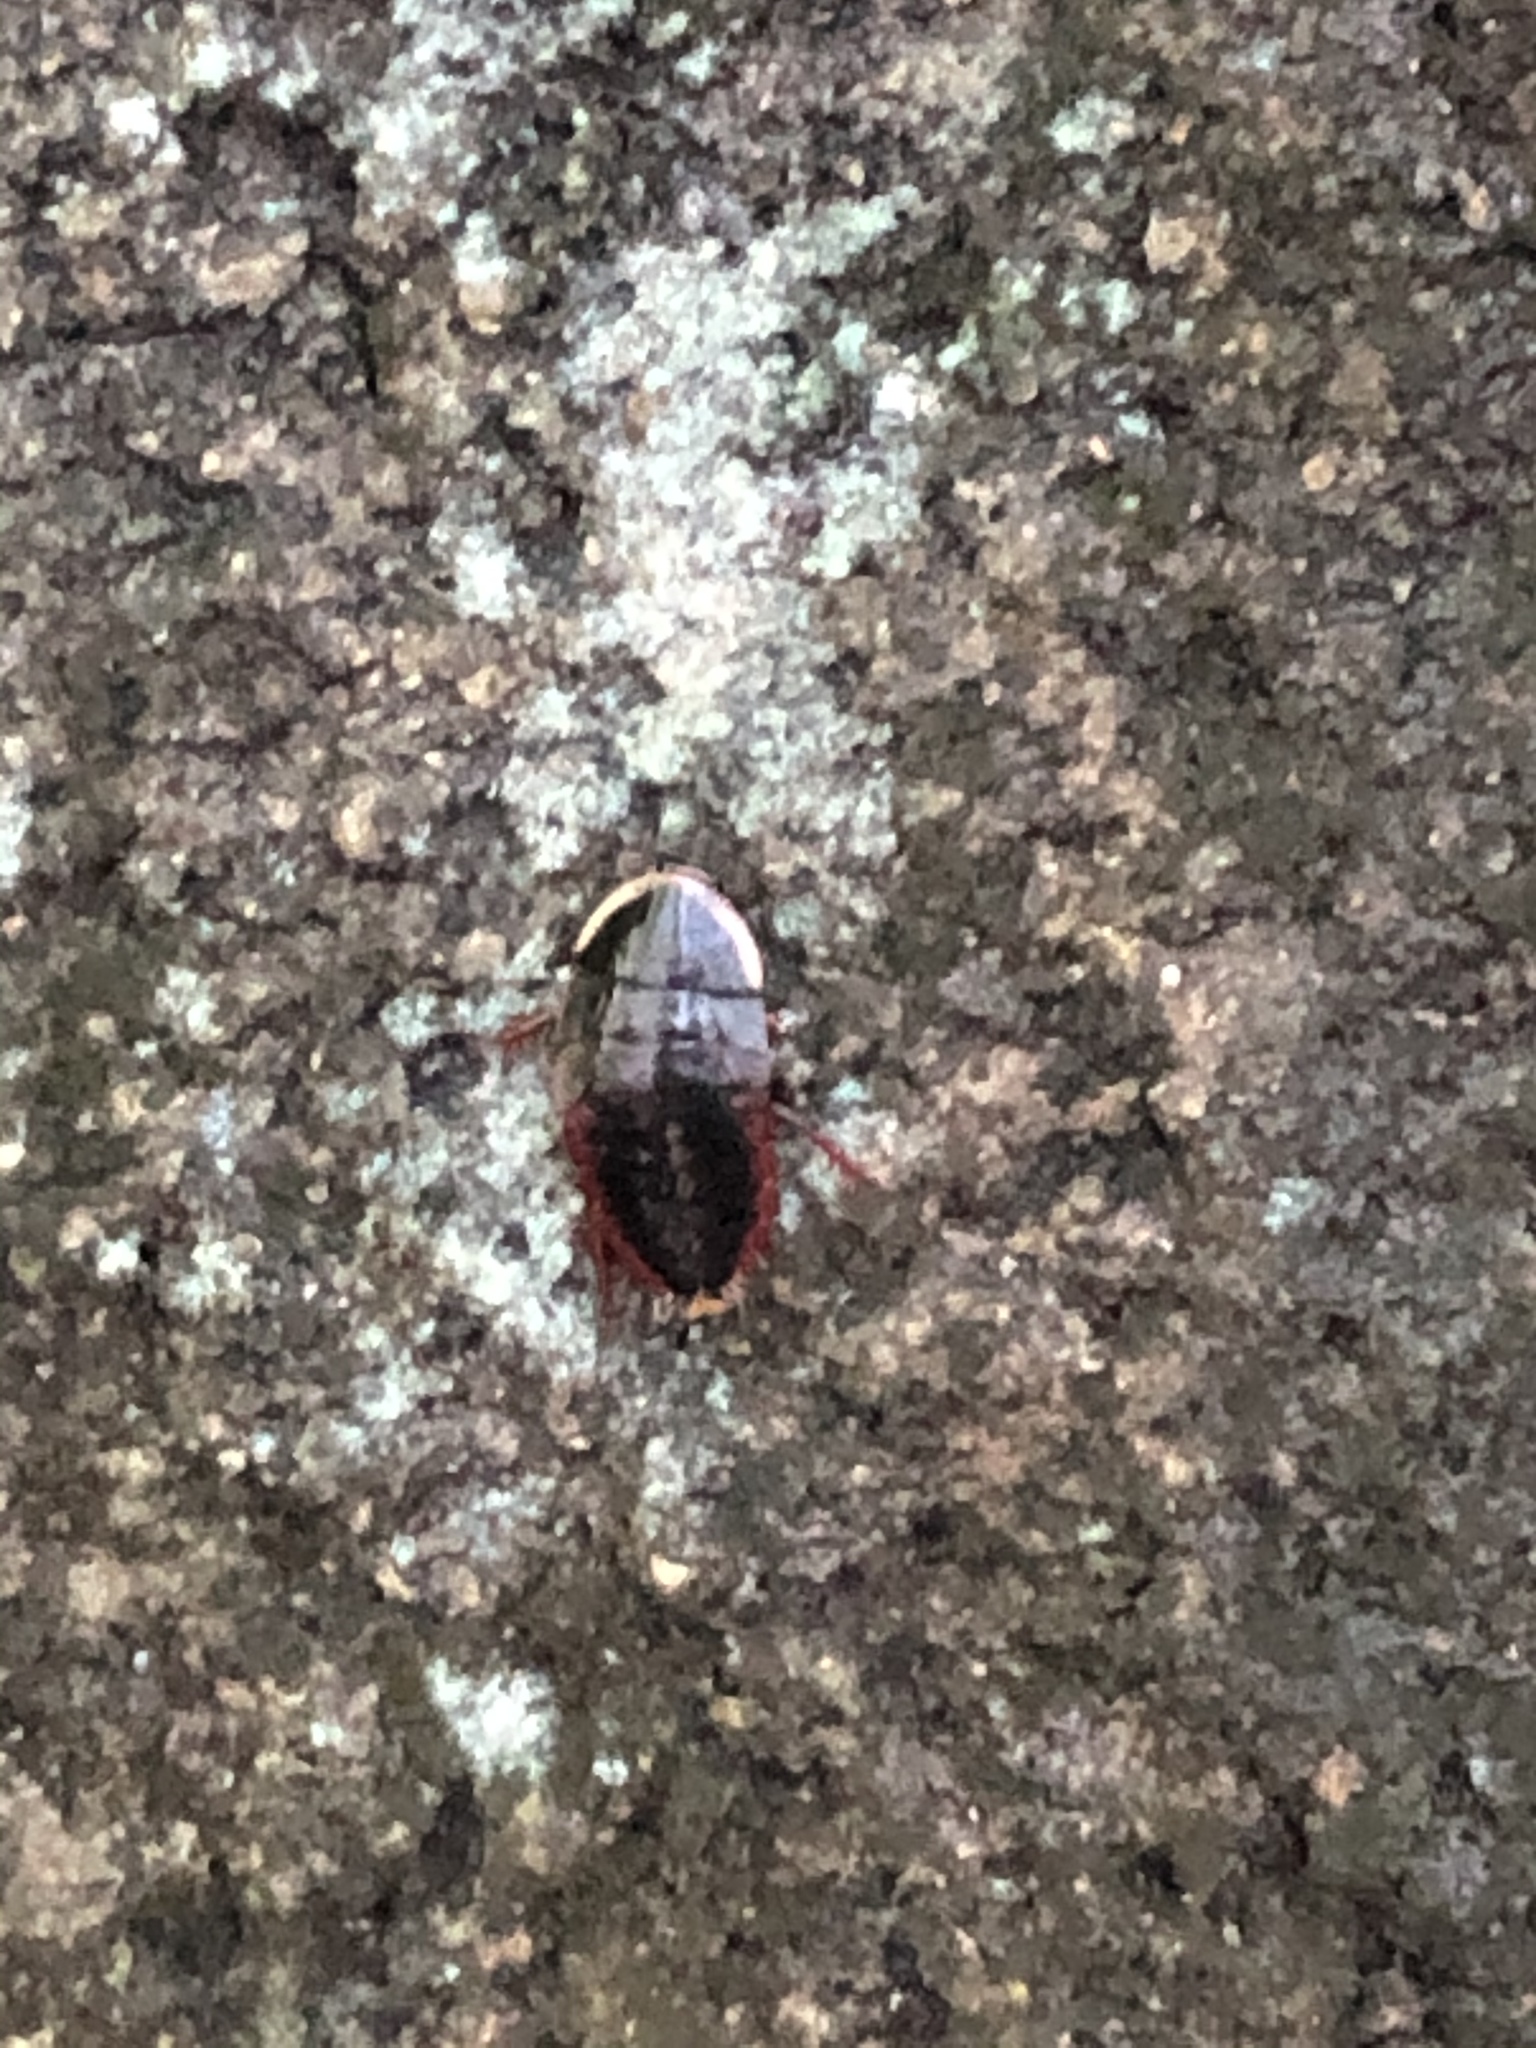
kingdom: Animalia
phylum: Arthropoda
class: Insecta
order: Blattodea
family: Blaberidae
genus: Opisthoplatia
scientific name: Opisthoplatia orientalis
